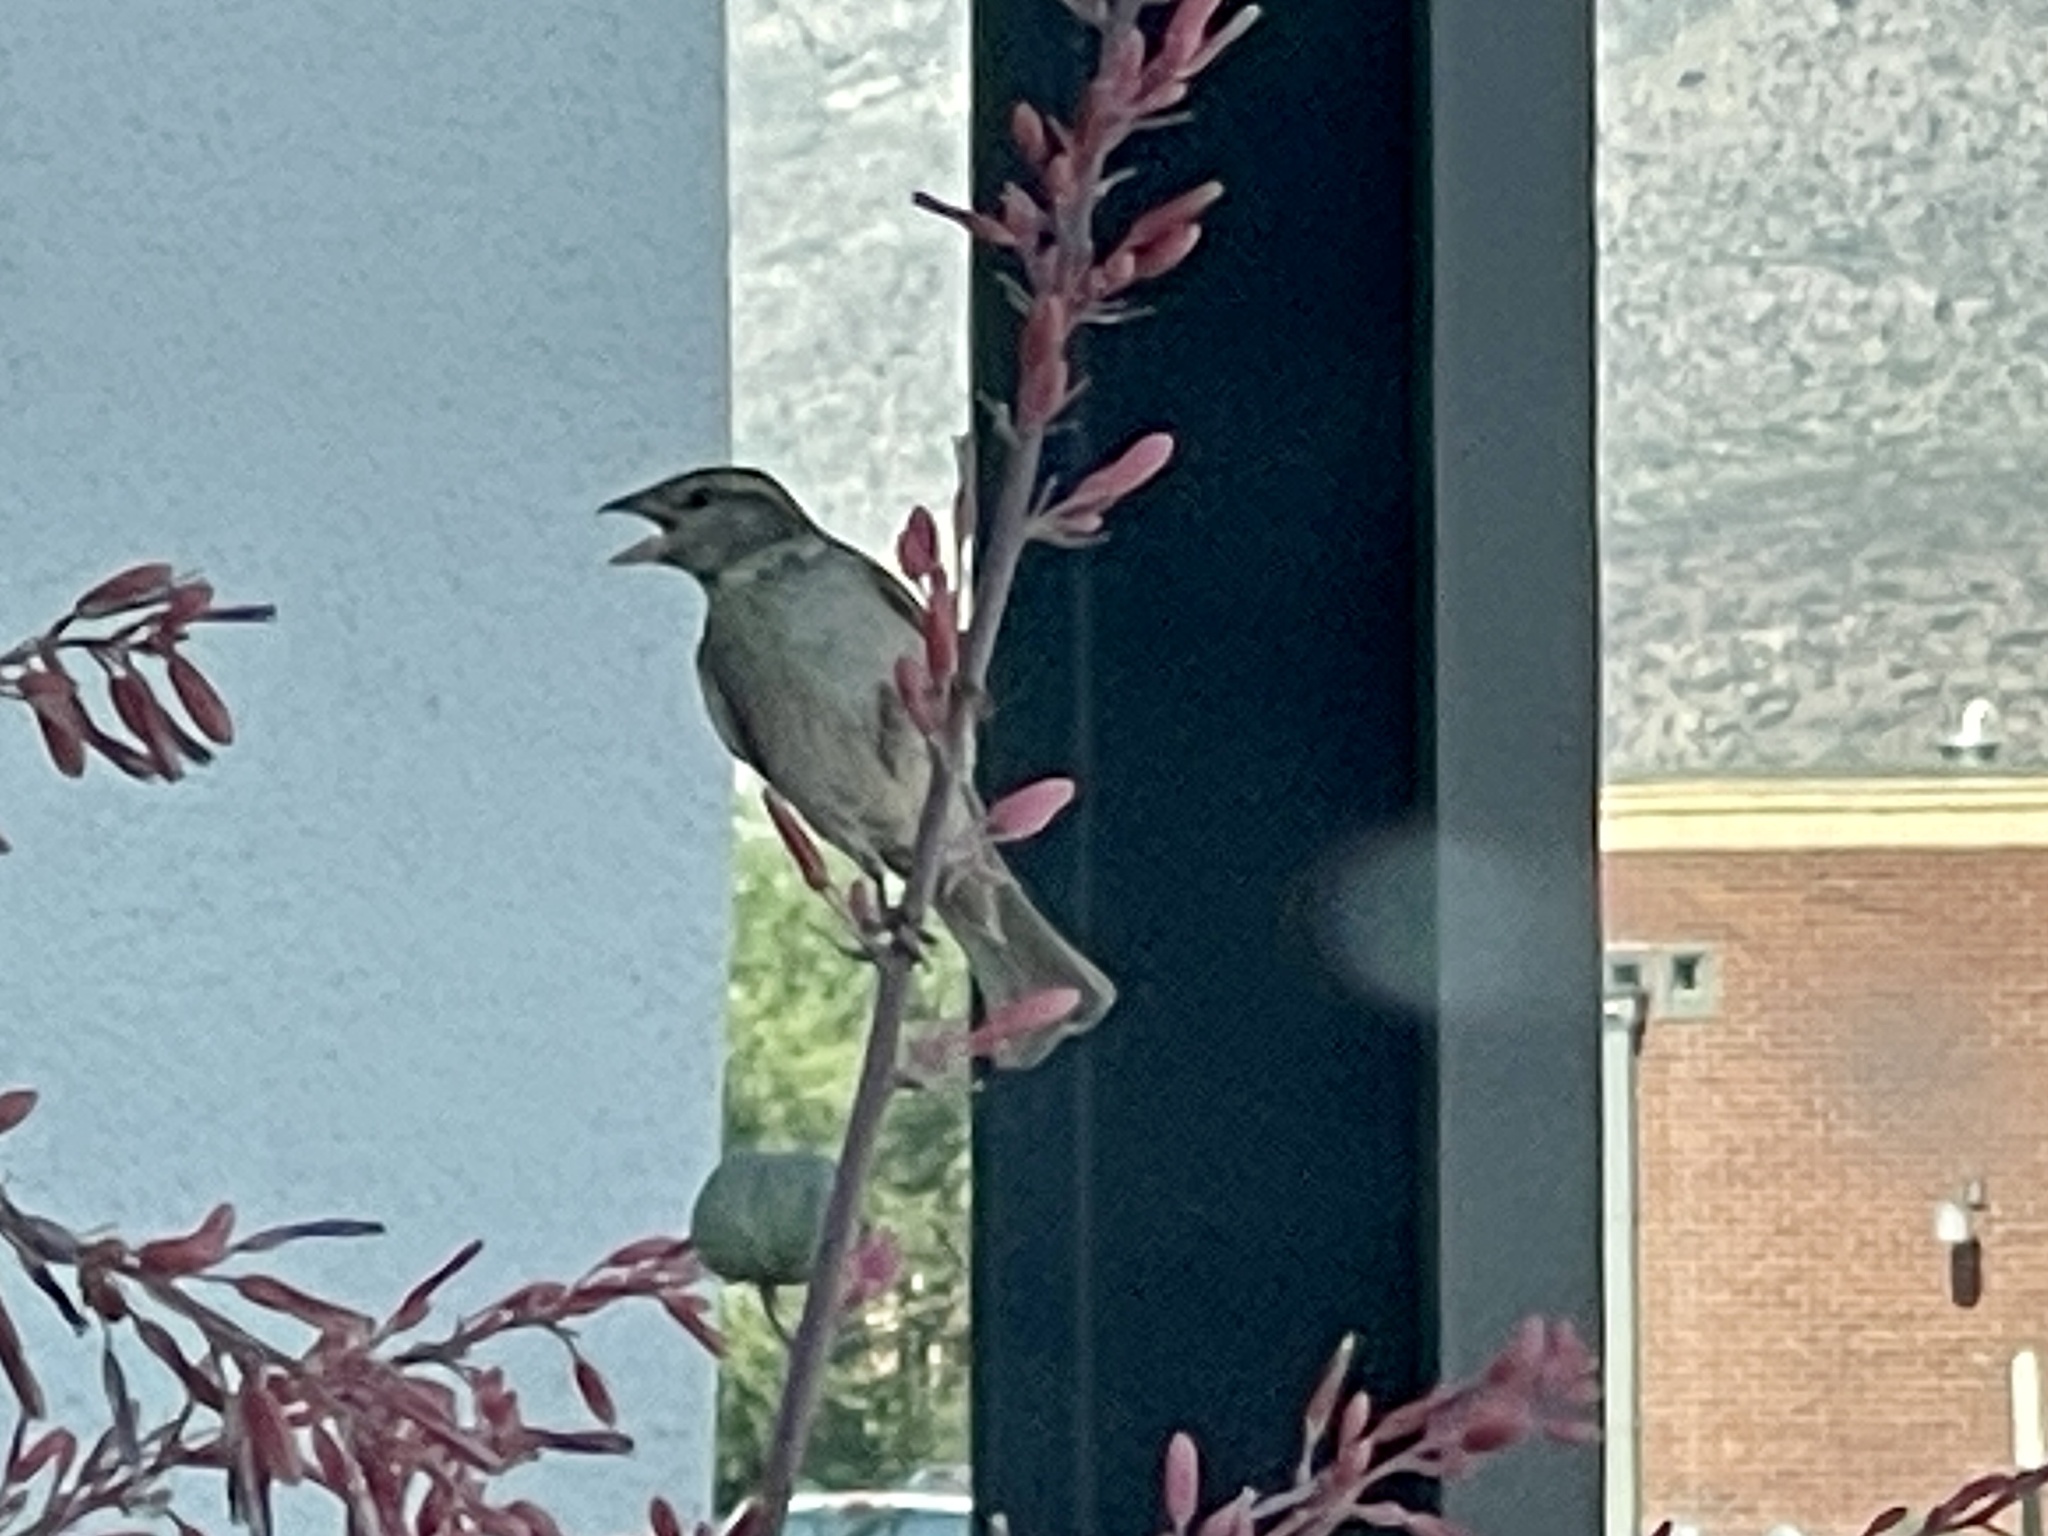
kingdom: Animalia
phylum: Chordata
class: Aves
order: Passeriformes
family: Passeridae
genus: Passer
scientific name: Passer domesticus
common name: House sparrow
